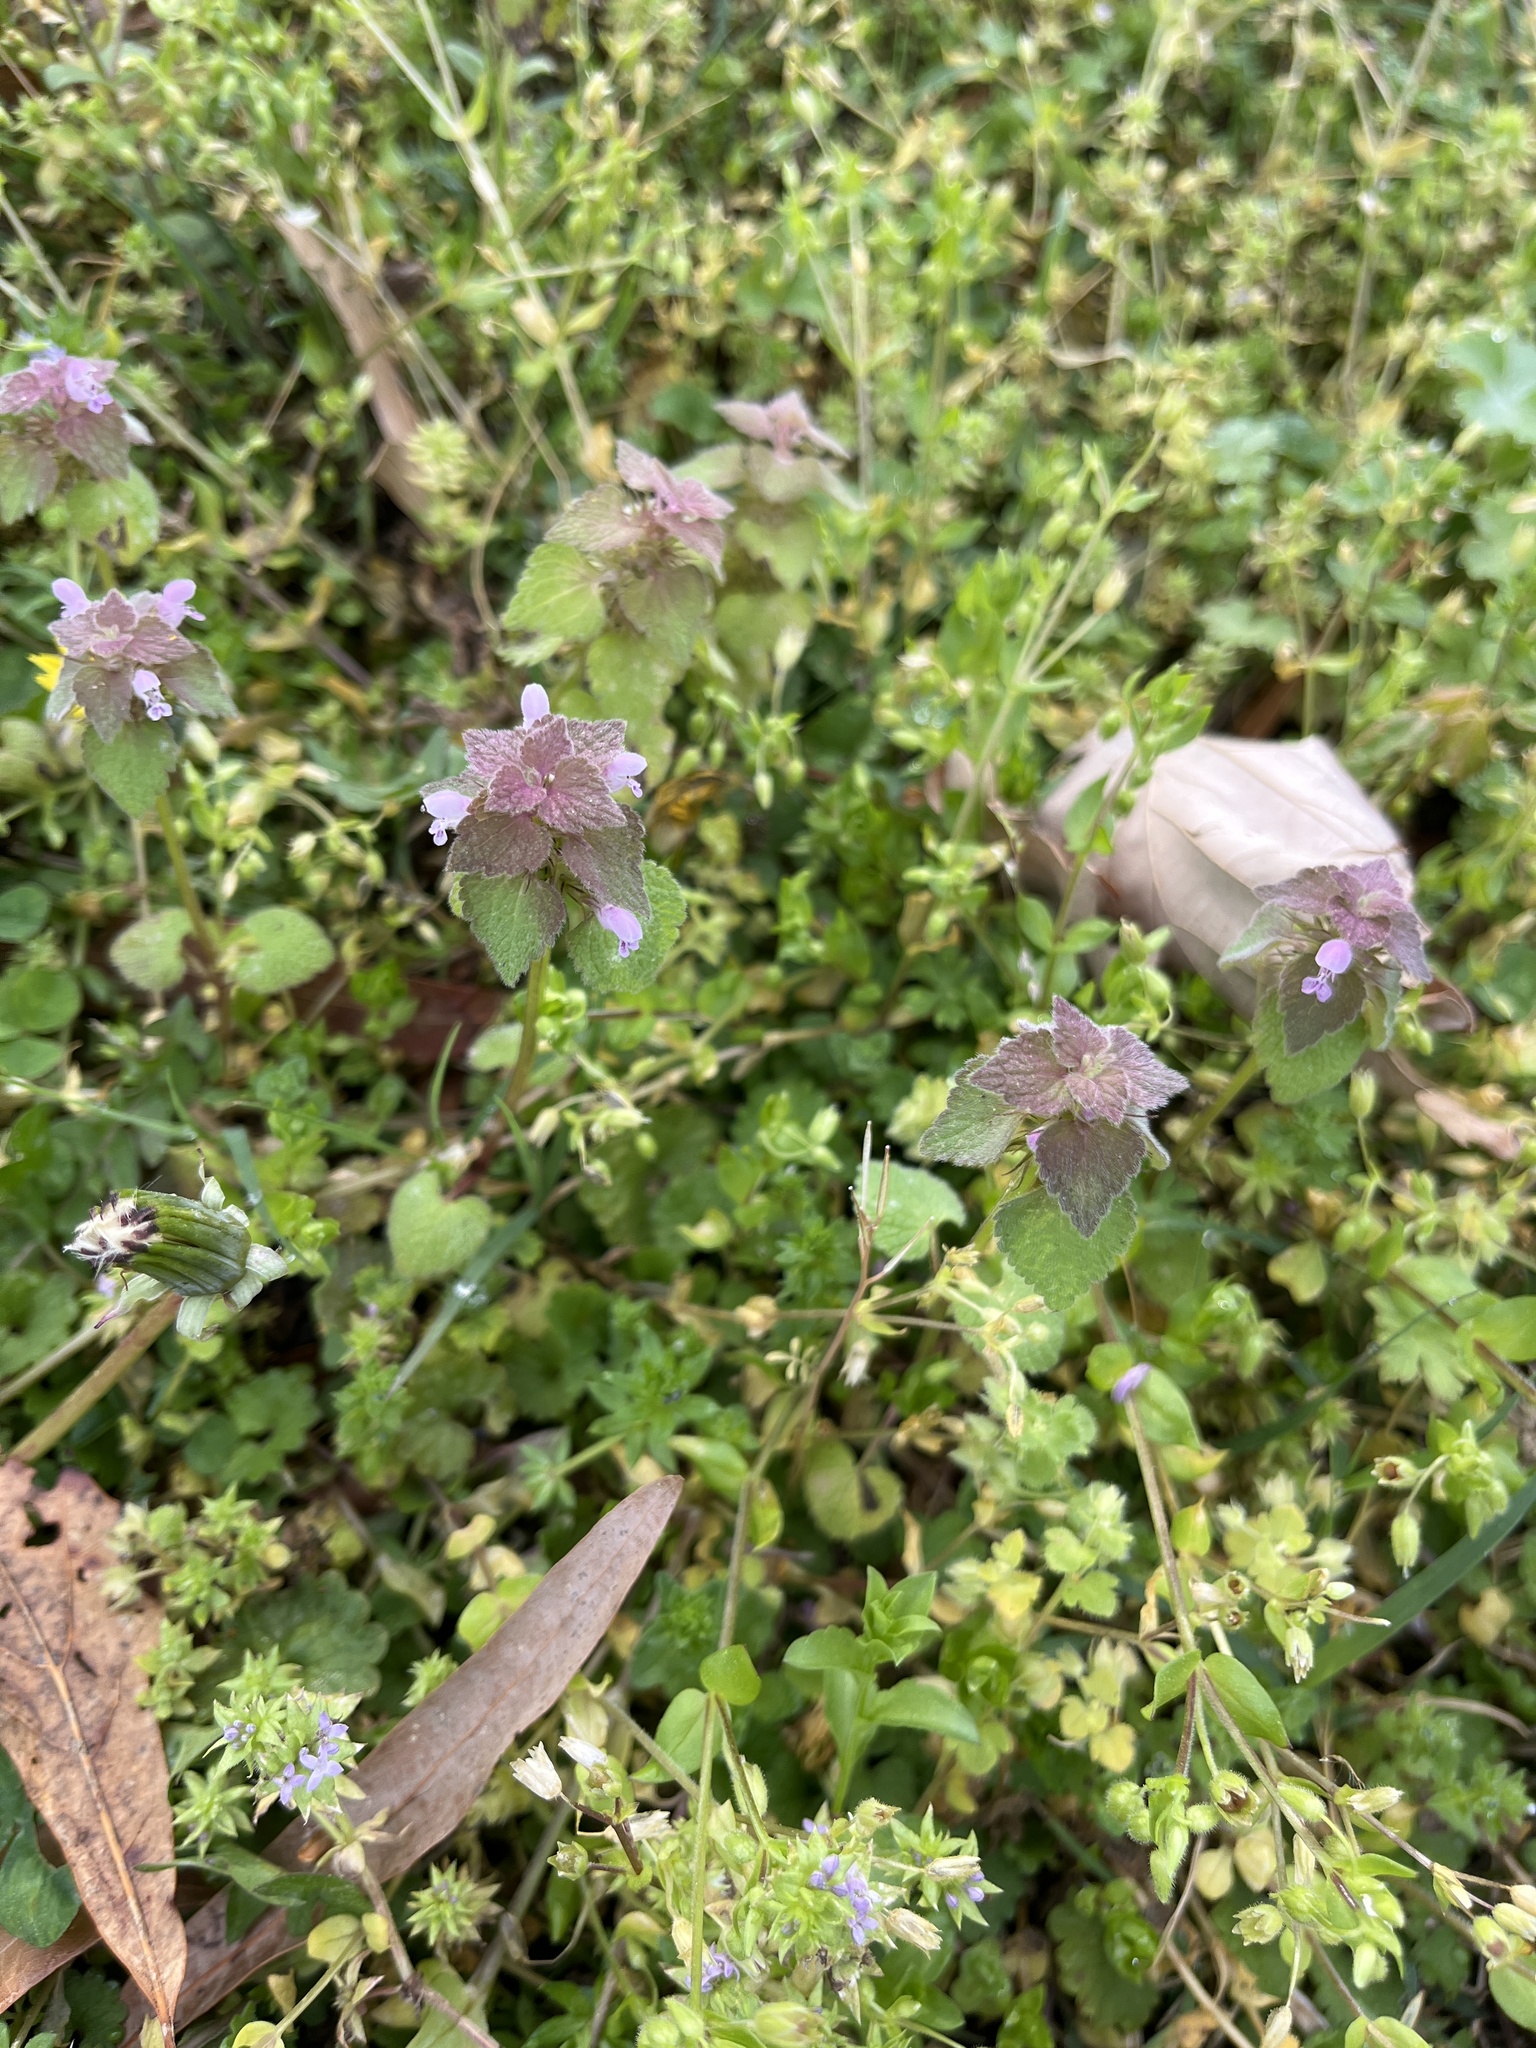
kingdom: Plantae
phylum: Tracheophyta
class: Magnoliopsida
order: Lamiales
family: Lamiaceae
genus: Lamium
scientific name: Lamium purpureum
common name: Red dead-nettle
